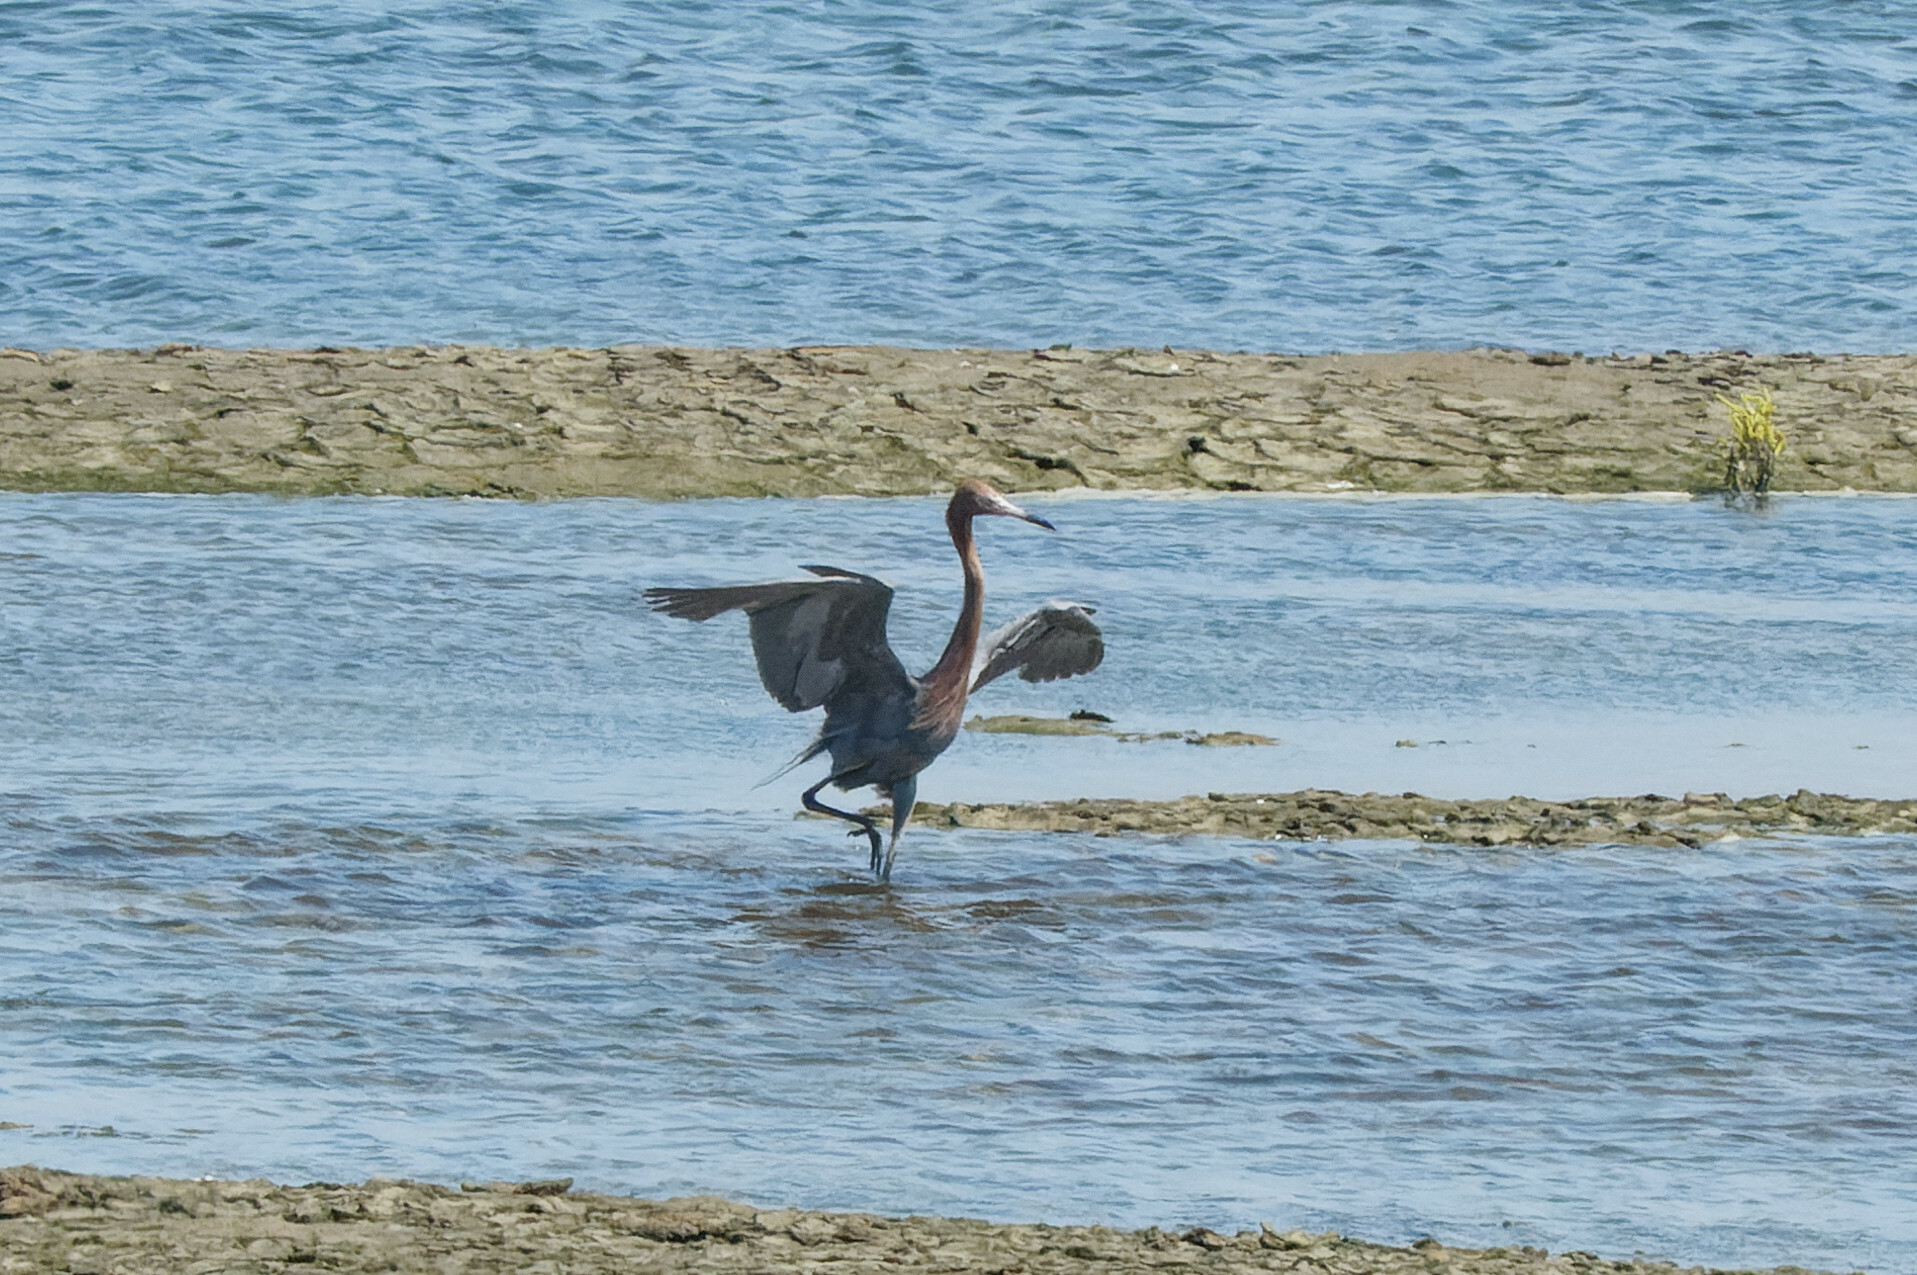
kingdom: Animalia
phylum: Chordata
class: Aves
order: Pelecaniformes
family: Ardeidae
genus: Egretta
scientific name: Egretta rufescens
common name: Reddish egret
